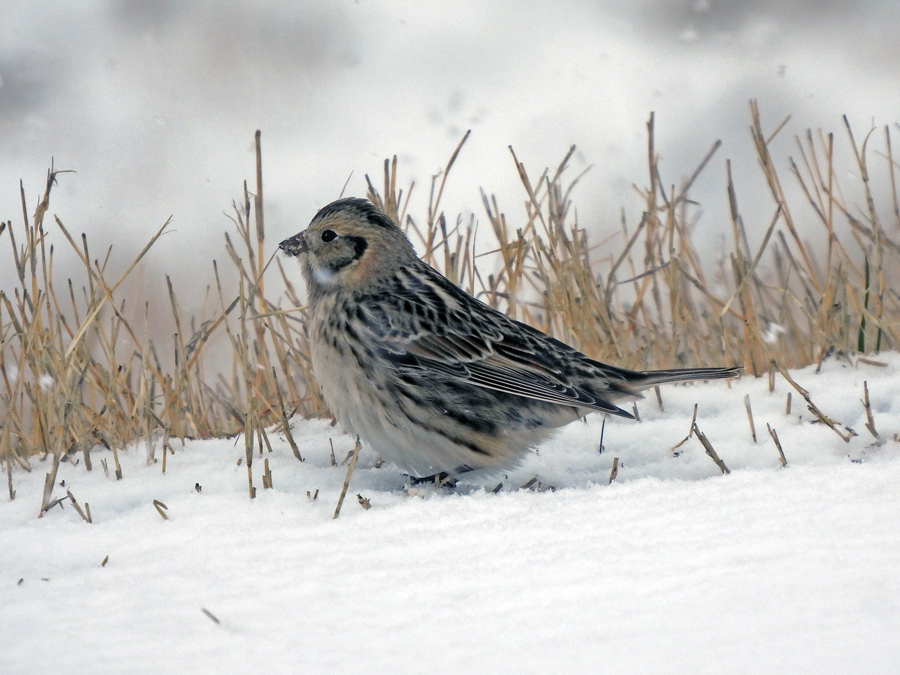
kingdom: Animalia
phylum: Chordata
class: Aves
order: Passeriformes
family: Calcariidae
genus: Calcarius
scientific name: Calcarius lapponicus
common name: Lapland longspur
